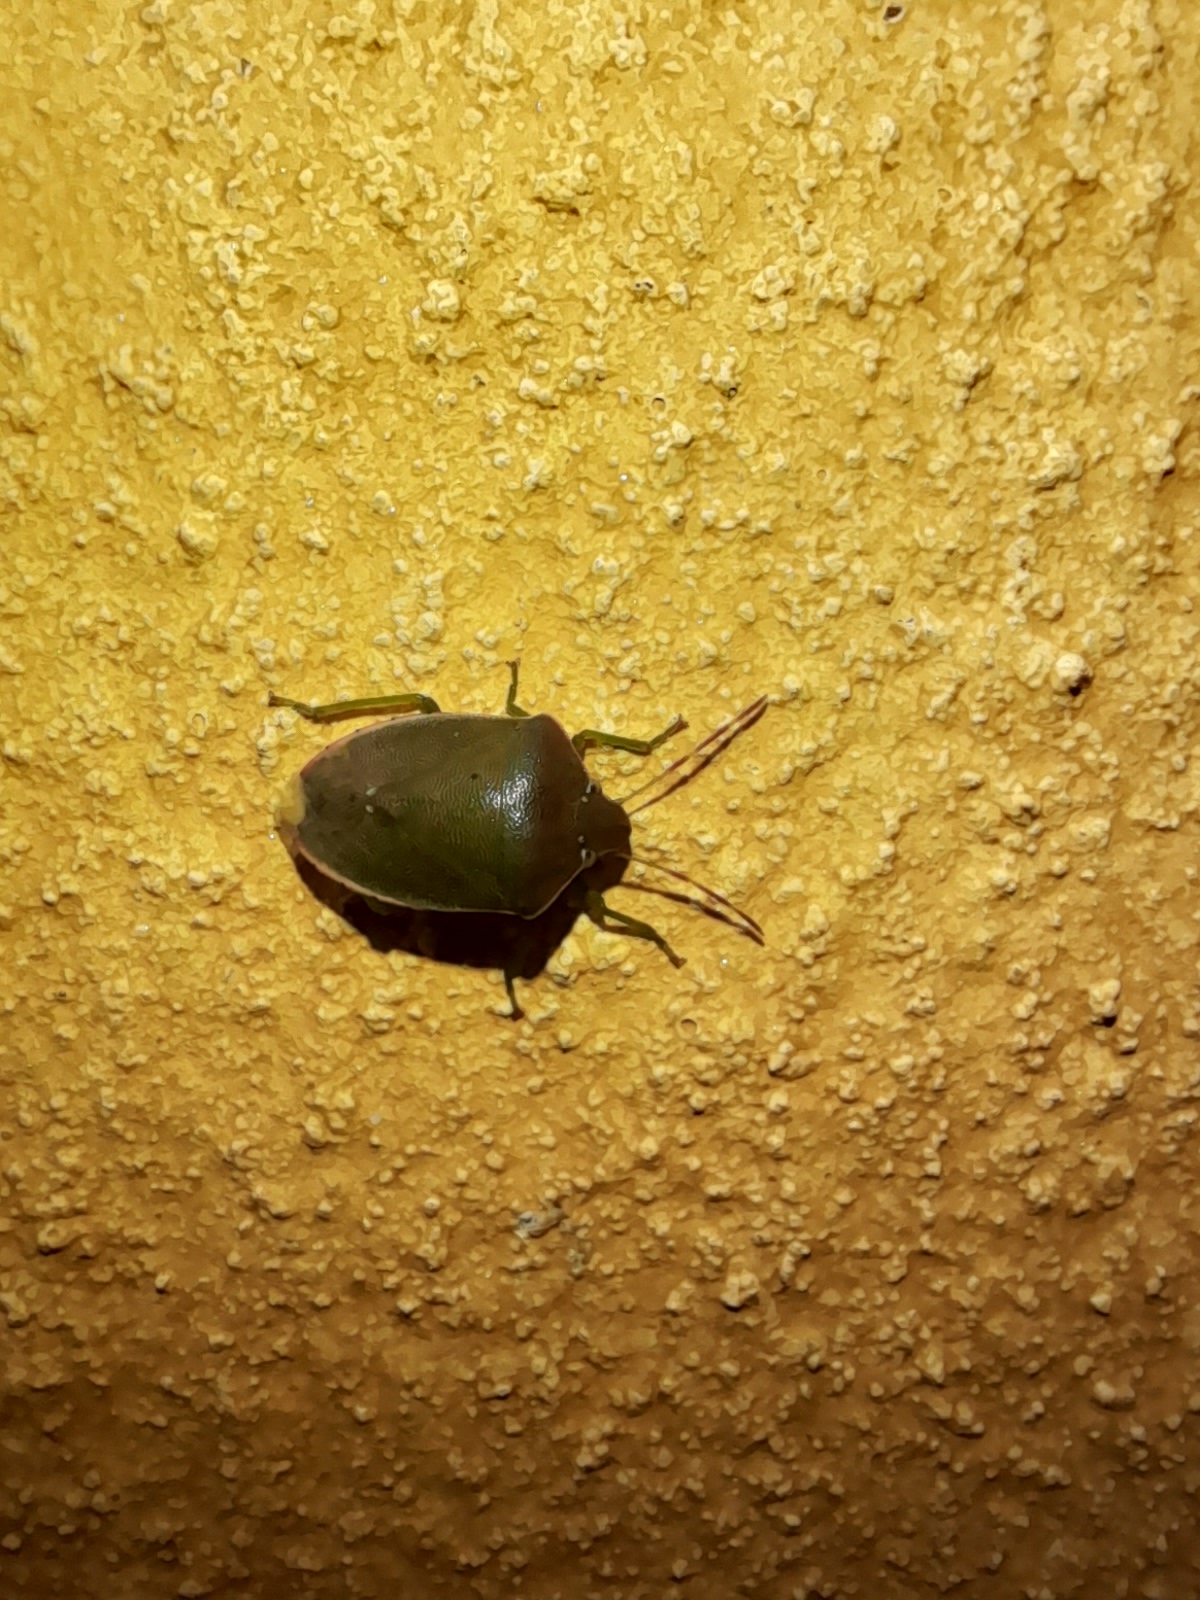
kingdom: Animalia
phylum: Arthropoda
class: Insecta
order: Hemiptera
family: Pentatomidae
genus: Acrosternum
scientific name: Acrosternum heegeri
